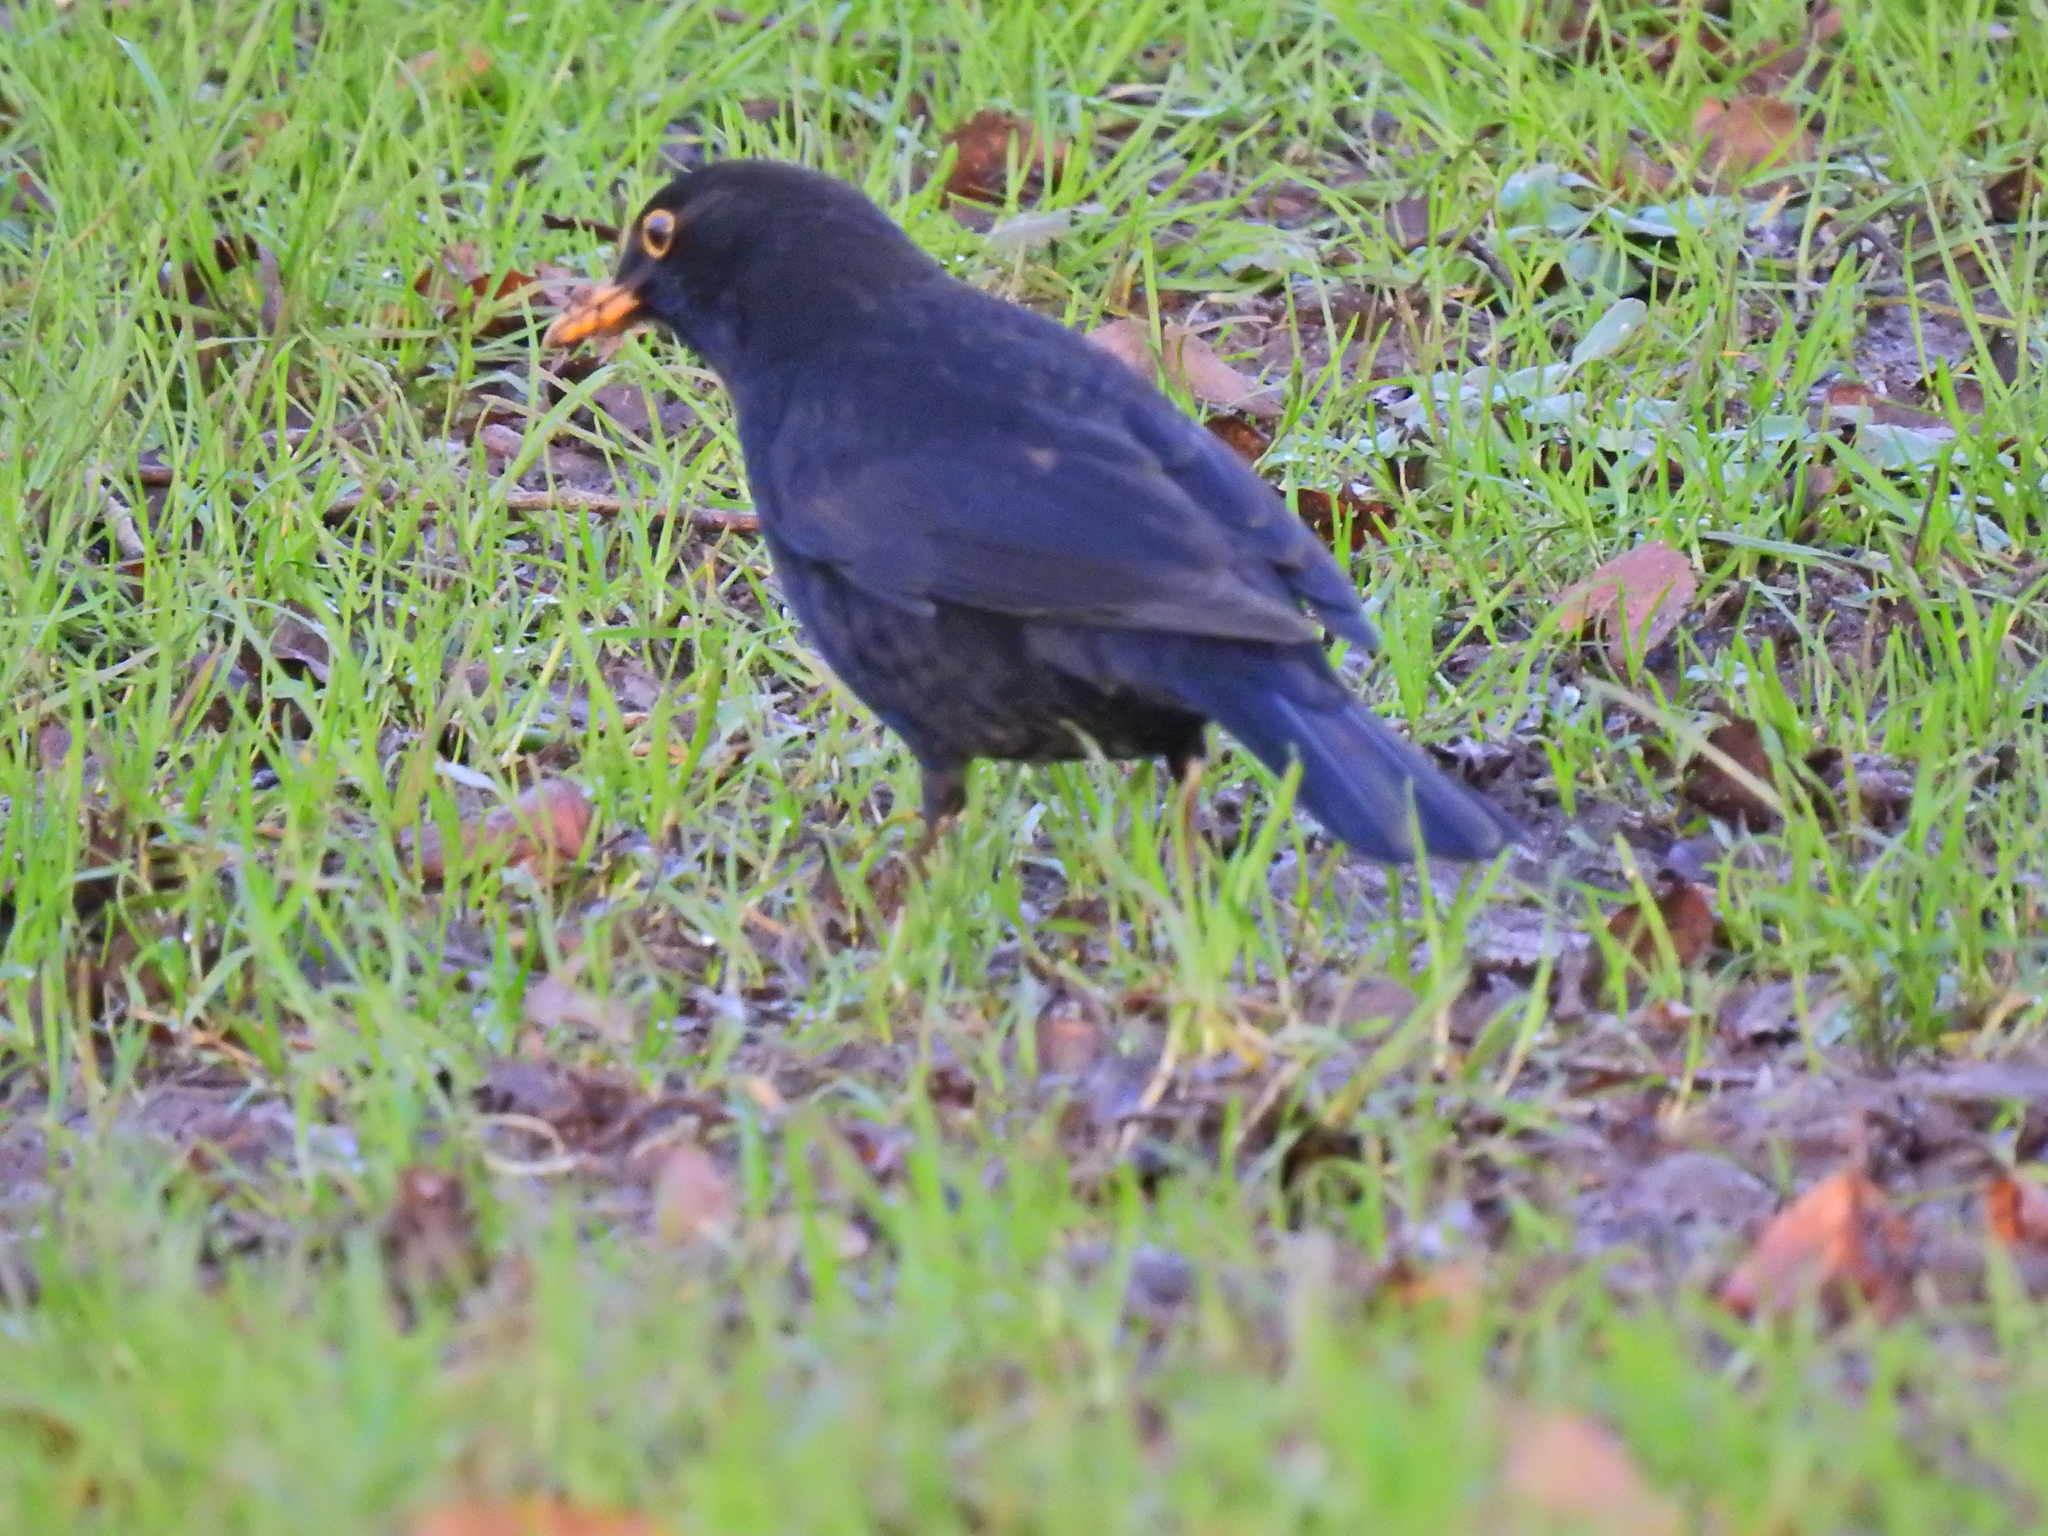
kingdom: Animalia
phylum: Chordata
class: Aves
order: Passeriformes
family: Turdidae
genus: Turdus
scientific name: Turdus merula
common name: Common blackbird
